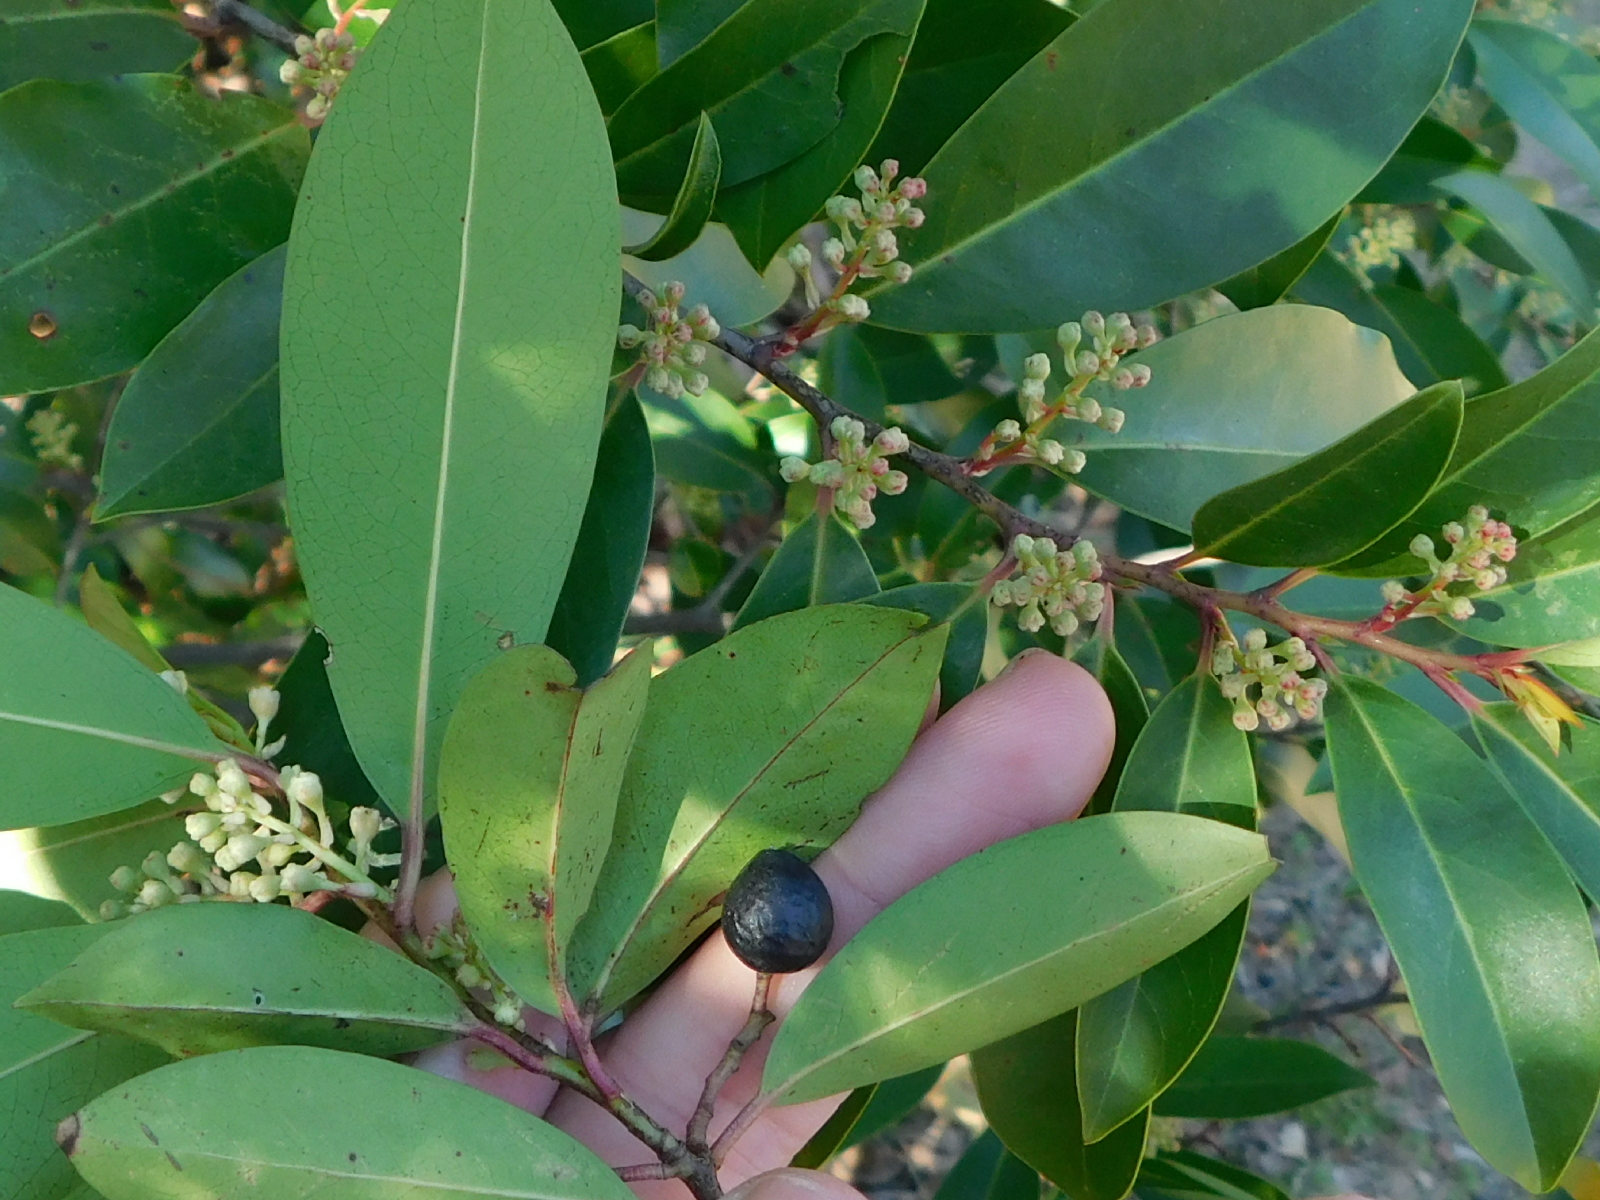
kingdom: Plantae
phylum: Tracheophyta
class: Magnoliopsida
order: Rosales
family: Rosaceae
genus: Prunus
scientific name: Prunus caroliniana
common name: Carolina laurel cherry
